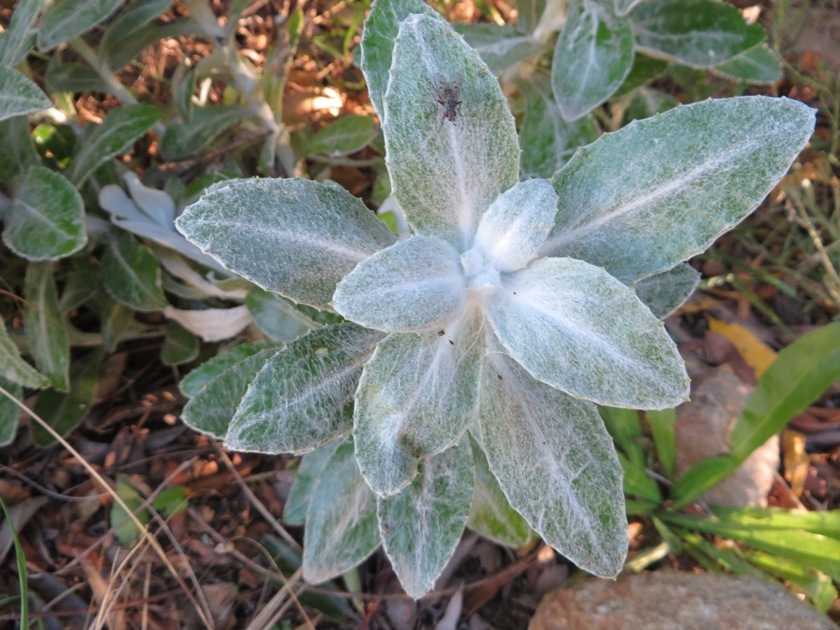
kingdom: Plantae
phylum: Tracheophyta
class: Magnoliopsida
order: Asterales
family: Asteraceae
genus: Oresbia
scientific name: Oresbia heterocarpa
